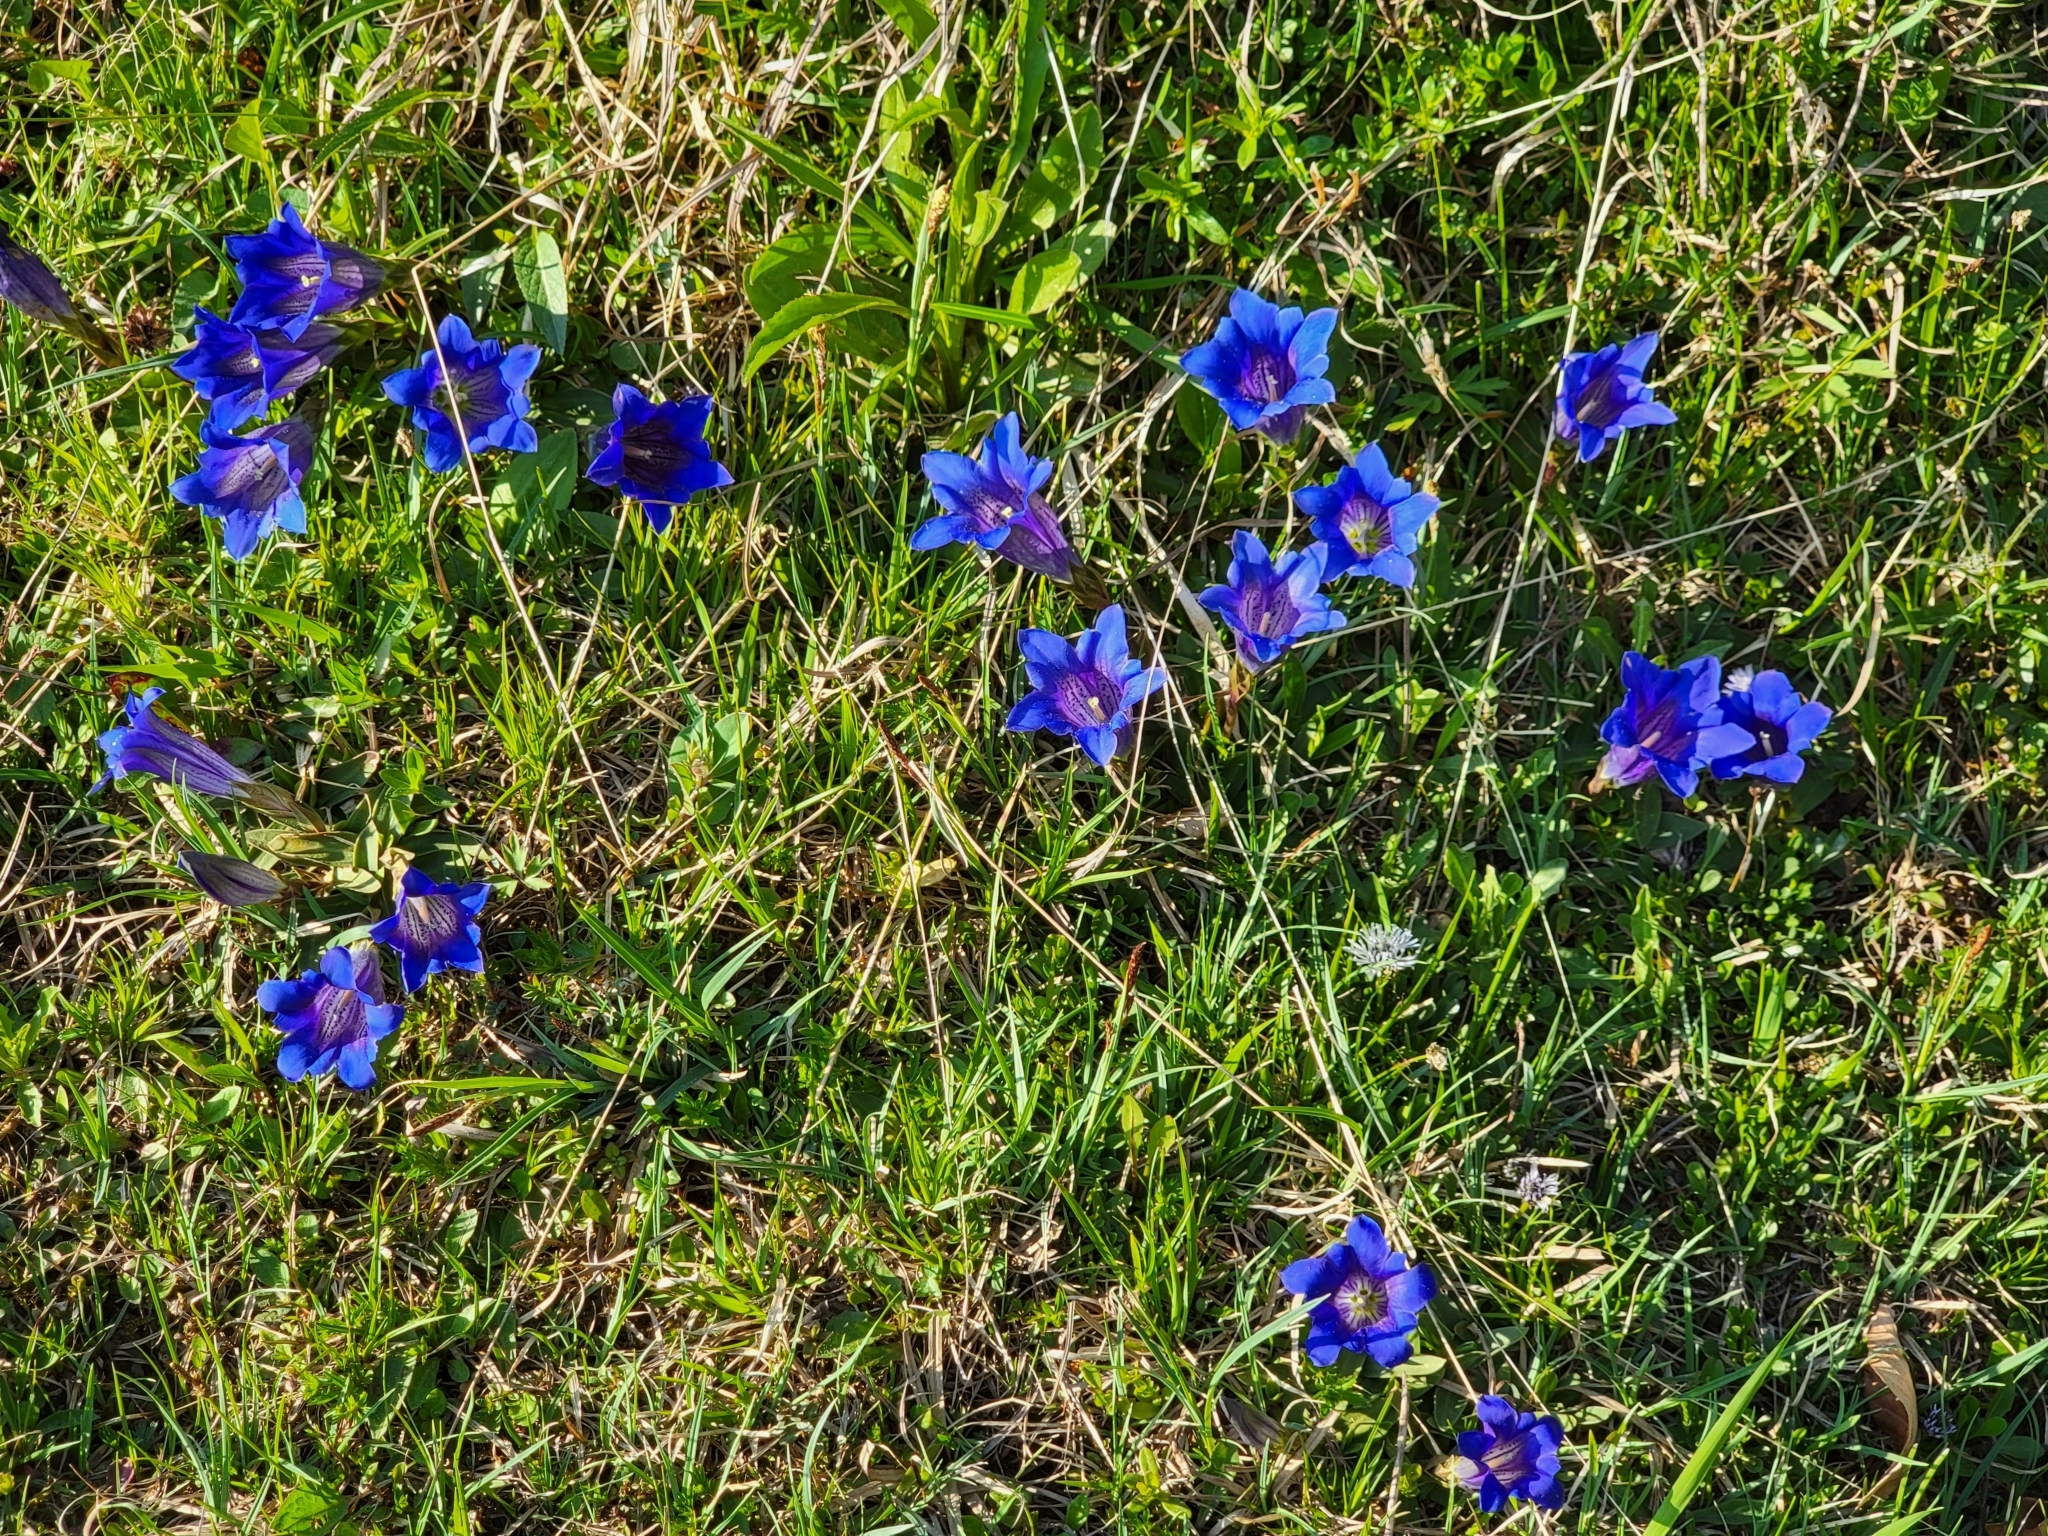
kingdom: Plantae
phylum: Tracheophyta
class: Magnoliopsida
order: Gentianales
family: Gentianaceae
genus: Gentiana
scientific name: Gentiana clusii
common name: Trumpet gentian
